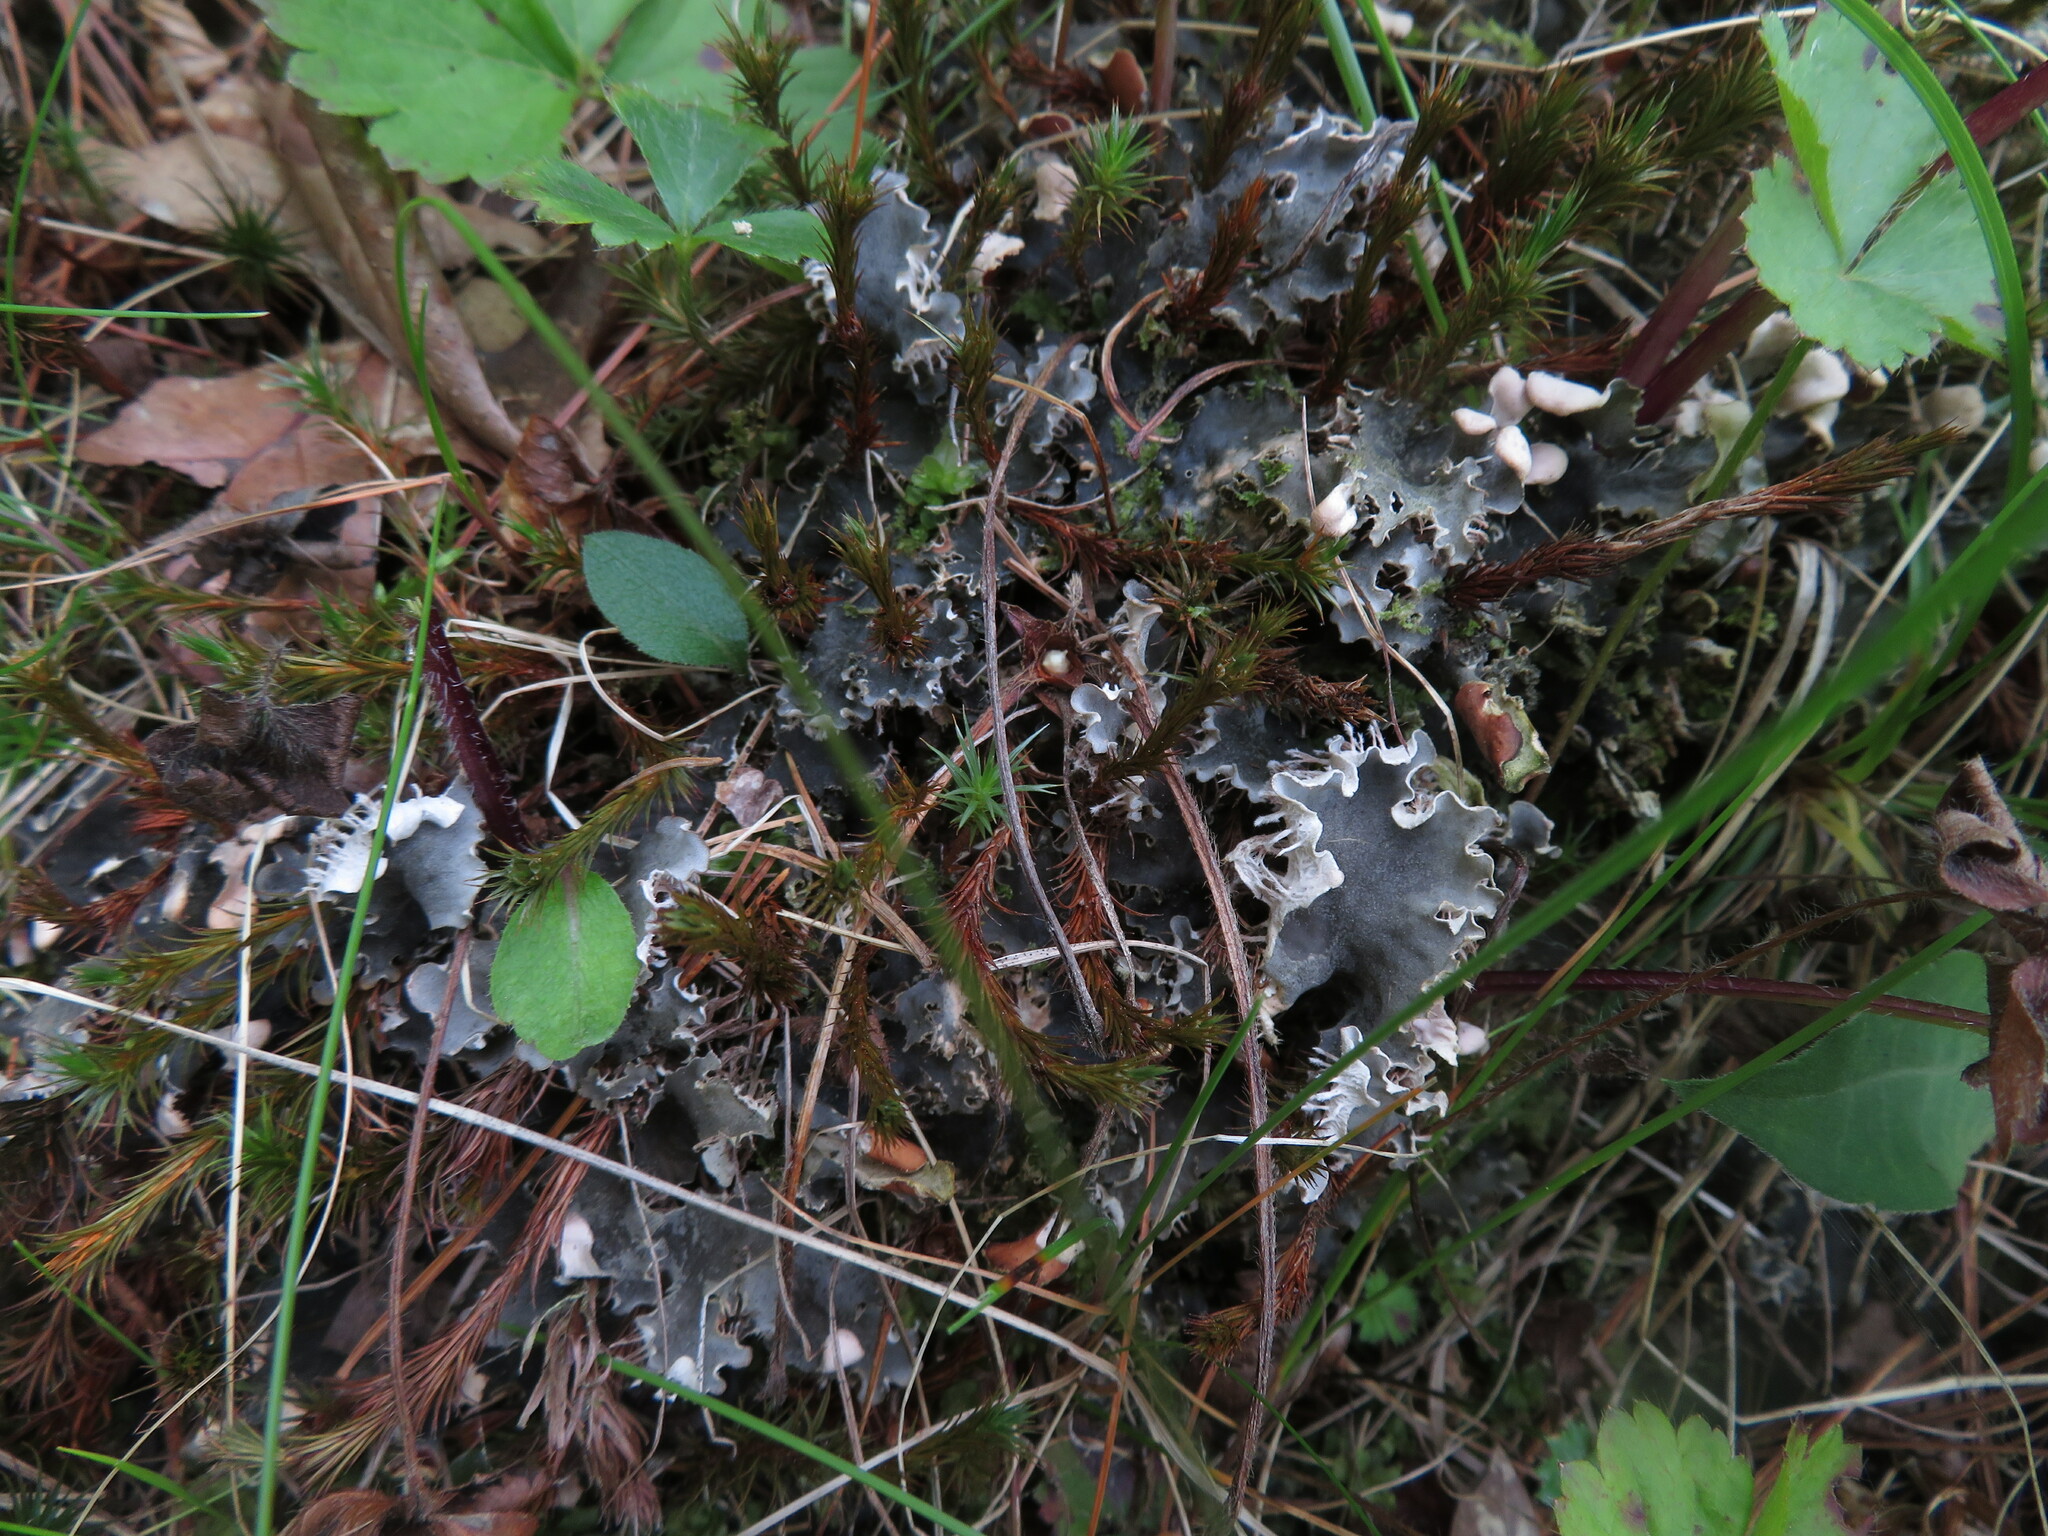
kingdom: Fungi
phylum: Ascomycota
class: Lecanoromycetes
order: Peltigerales
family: Peltigeraceae
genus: Peltigera
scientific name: Peltigera rufescens
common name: Field dog lichen
